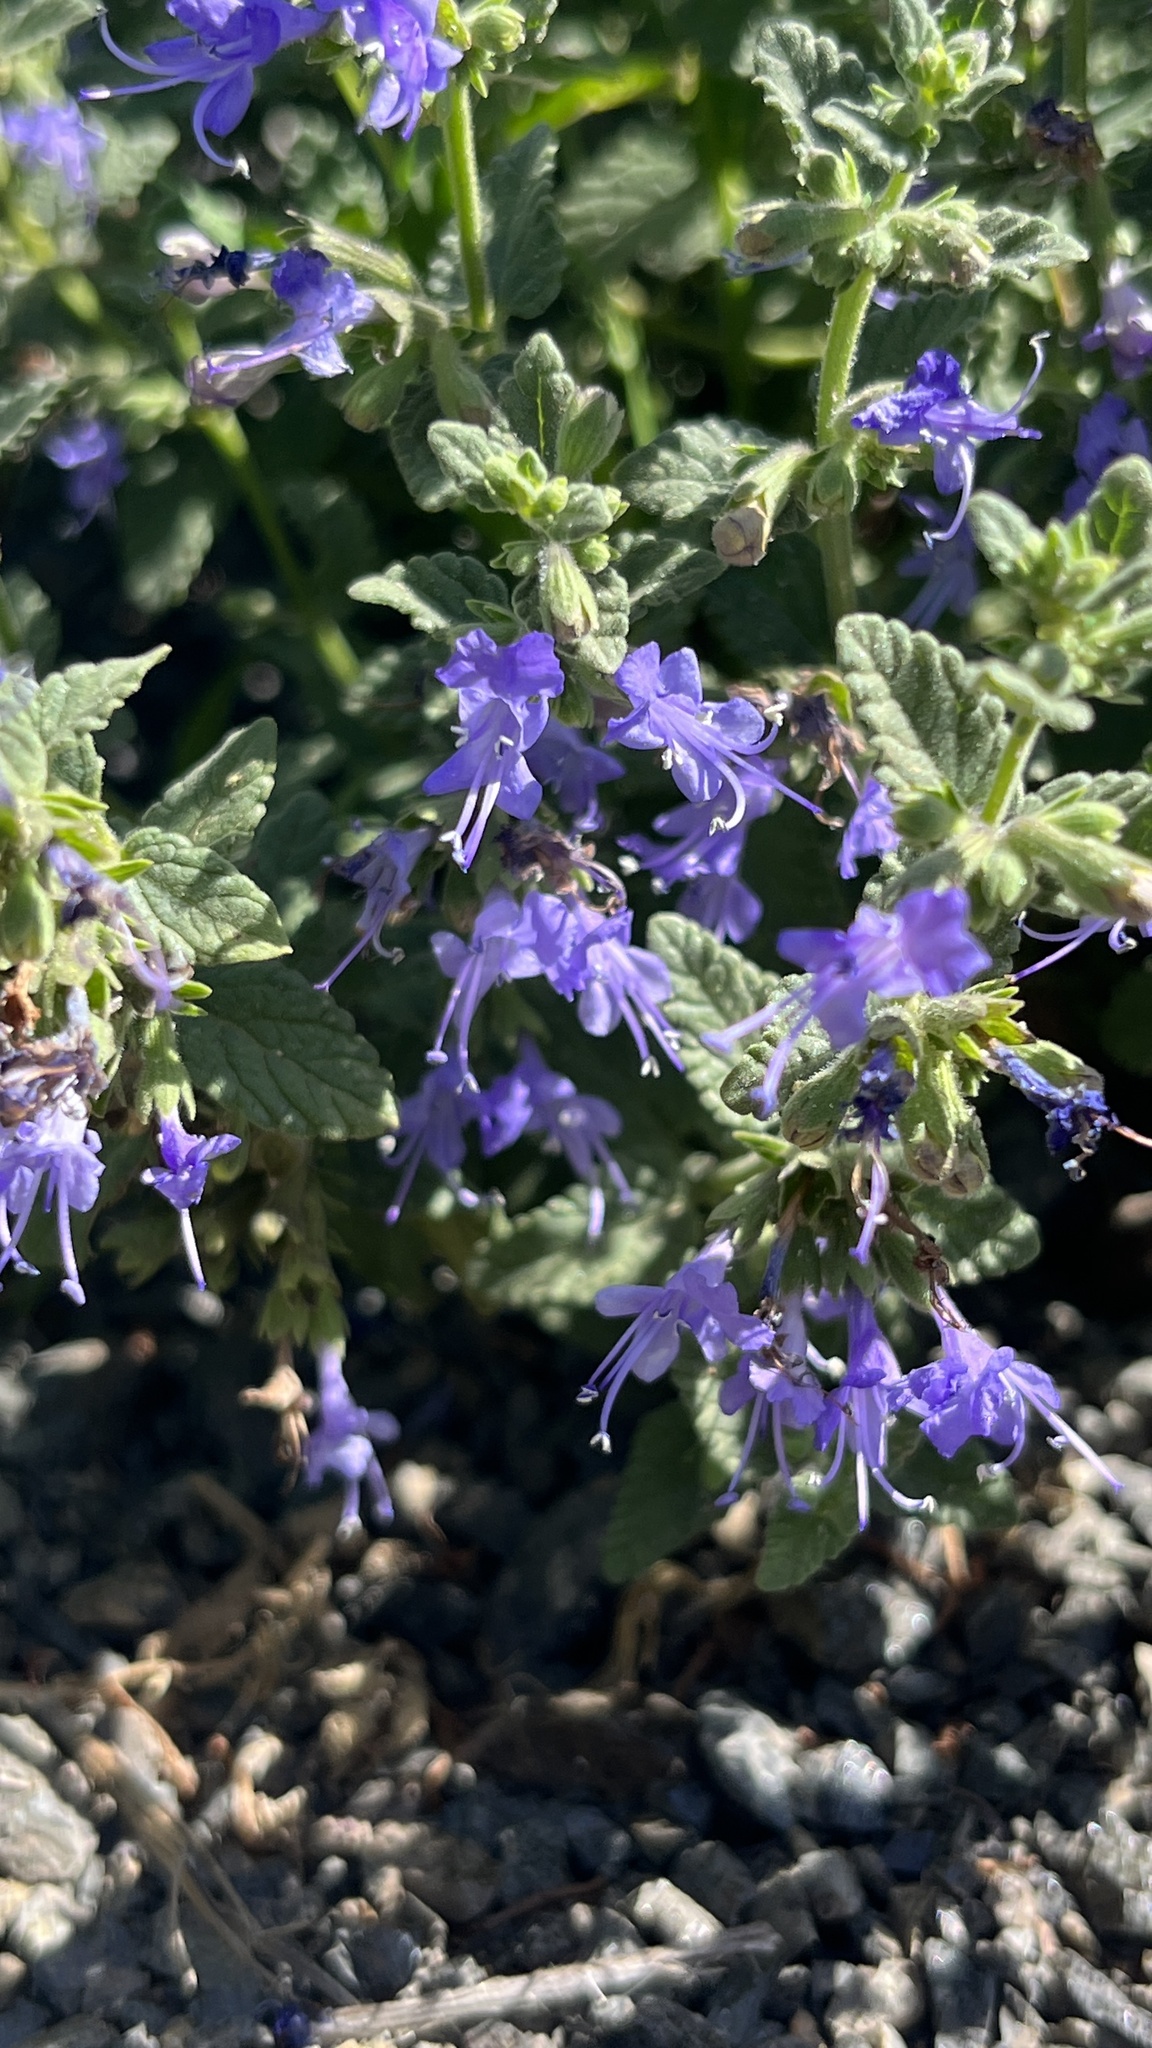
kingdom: Plantae
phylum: Tracheophyta
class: Magnoliopsida
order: Lamiales
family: Lamiaceae
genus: Nepeta
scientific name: Nepeta lophanthus
